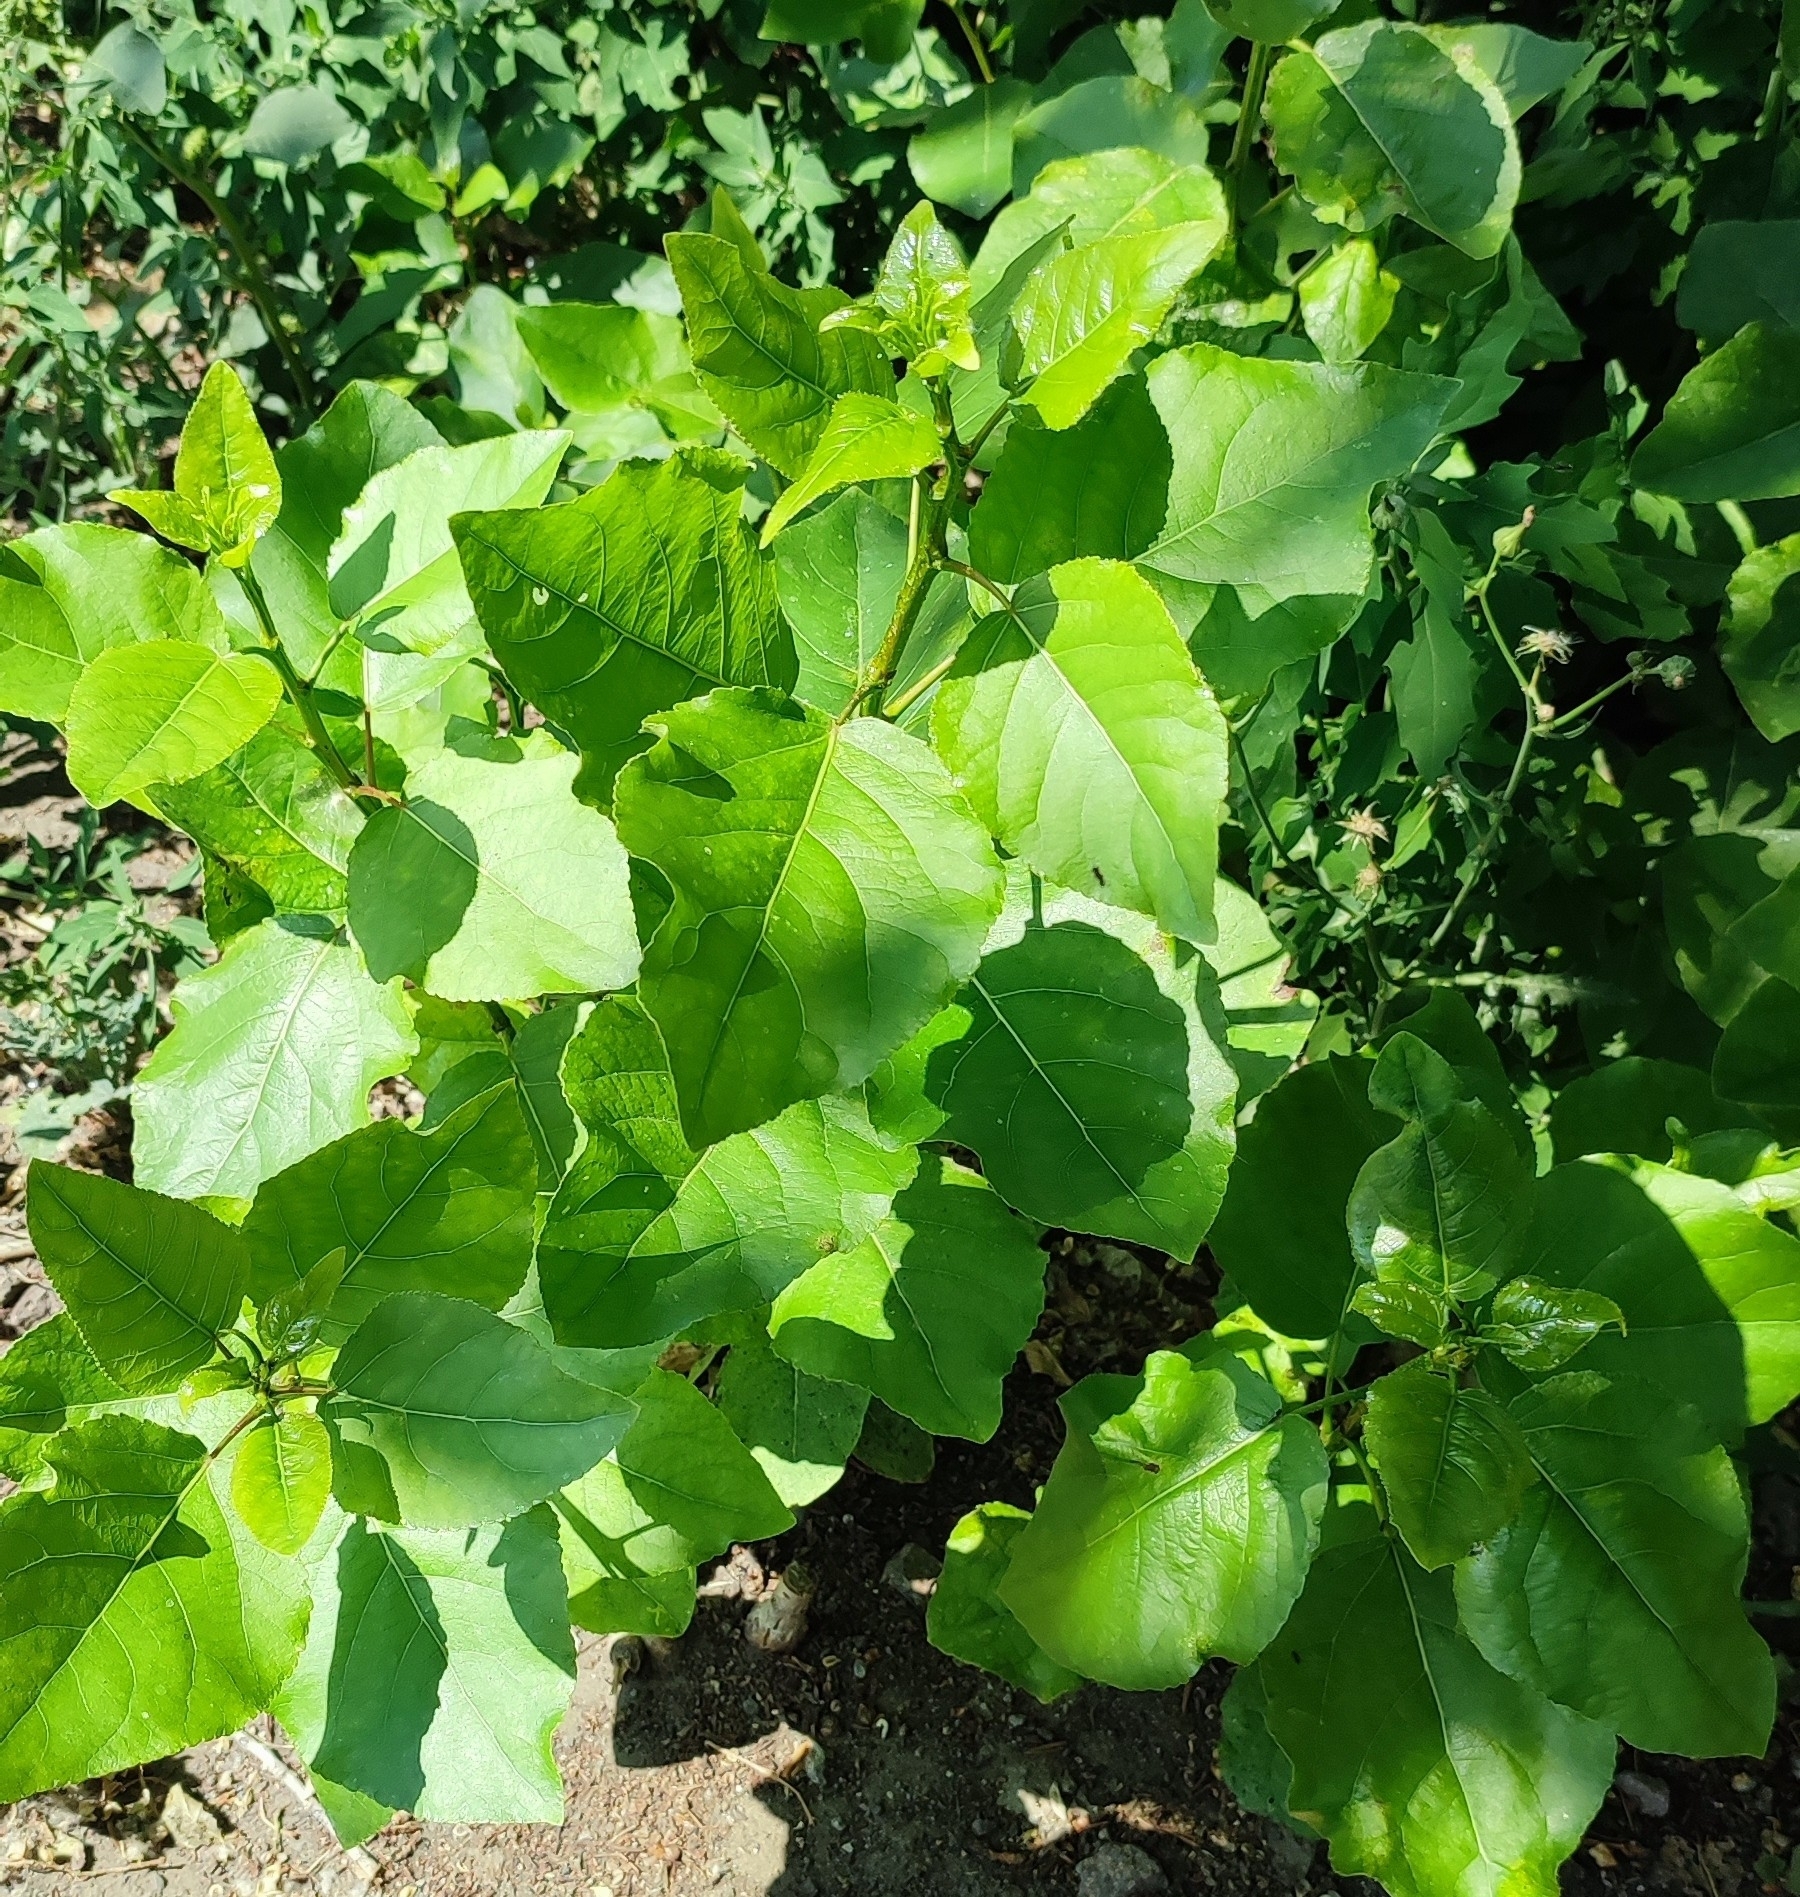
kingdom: Plantae
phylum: Tracheophyta
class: Magnoliopsida
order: Malpighiales
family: Salicaceae
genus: Populus
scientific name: Populus sibirica
